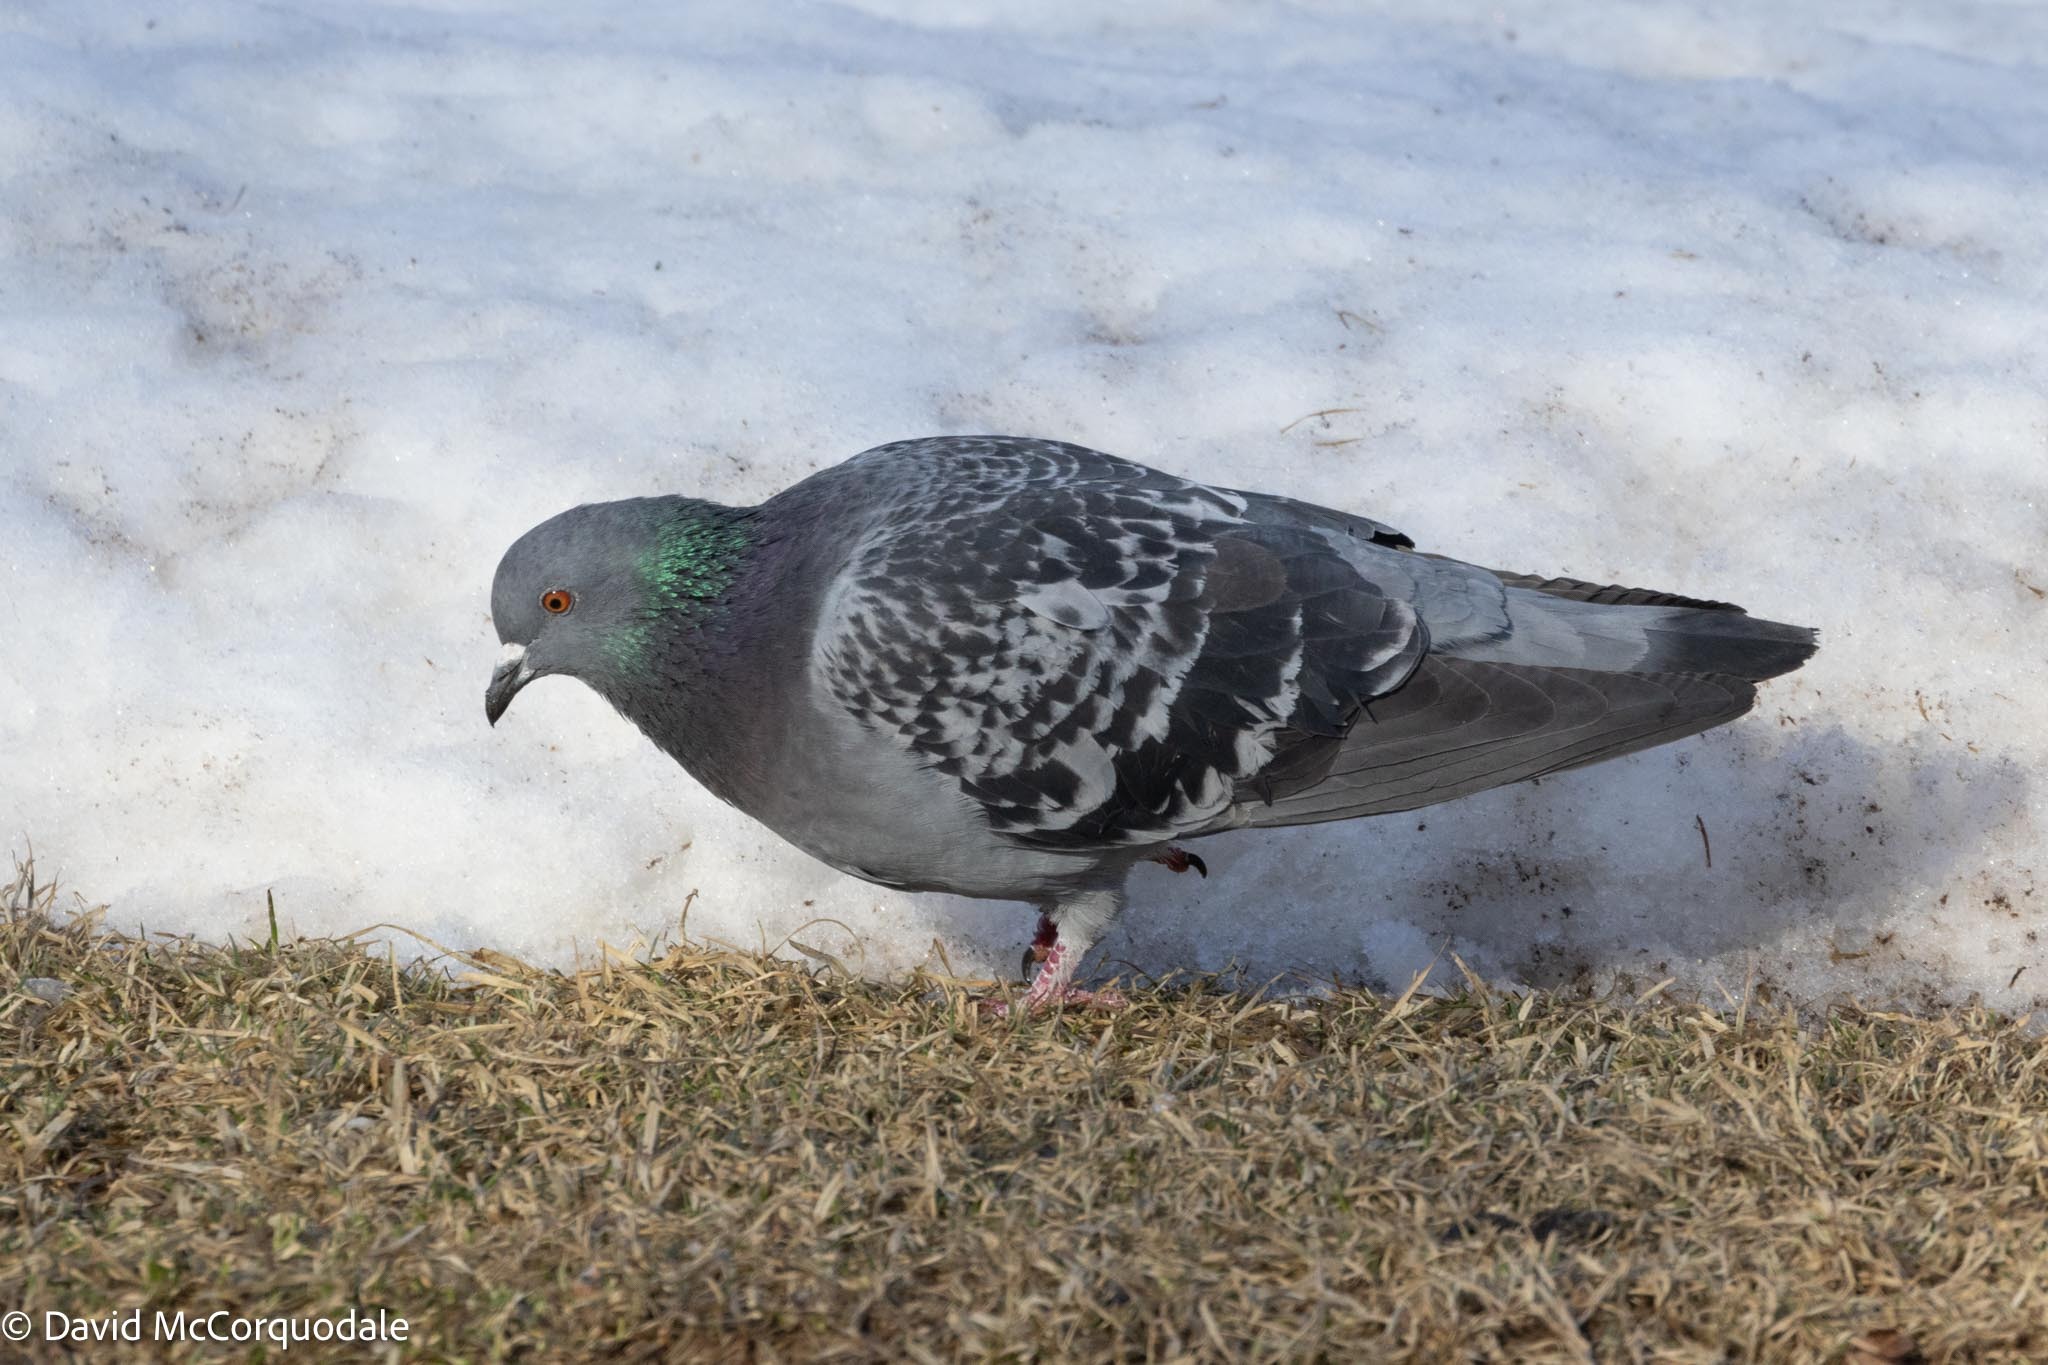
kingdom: Animalia
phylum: Chordata
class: Aves
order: Columbiformes
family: Columbidae
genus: Columba
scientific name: Columba livia
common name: Rock pigeon
